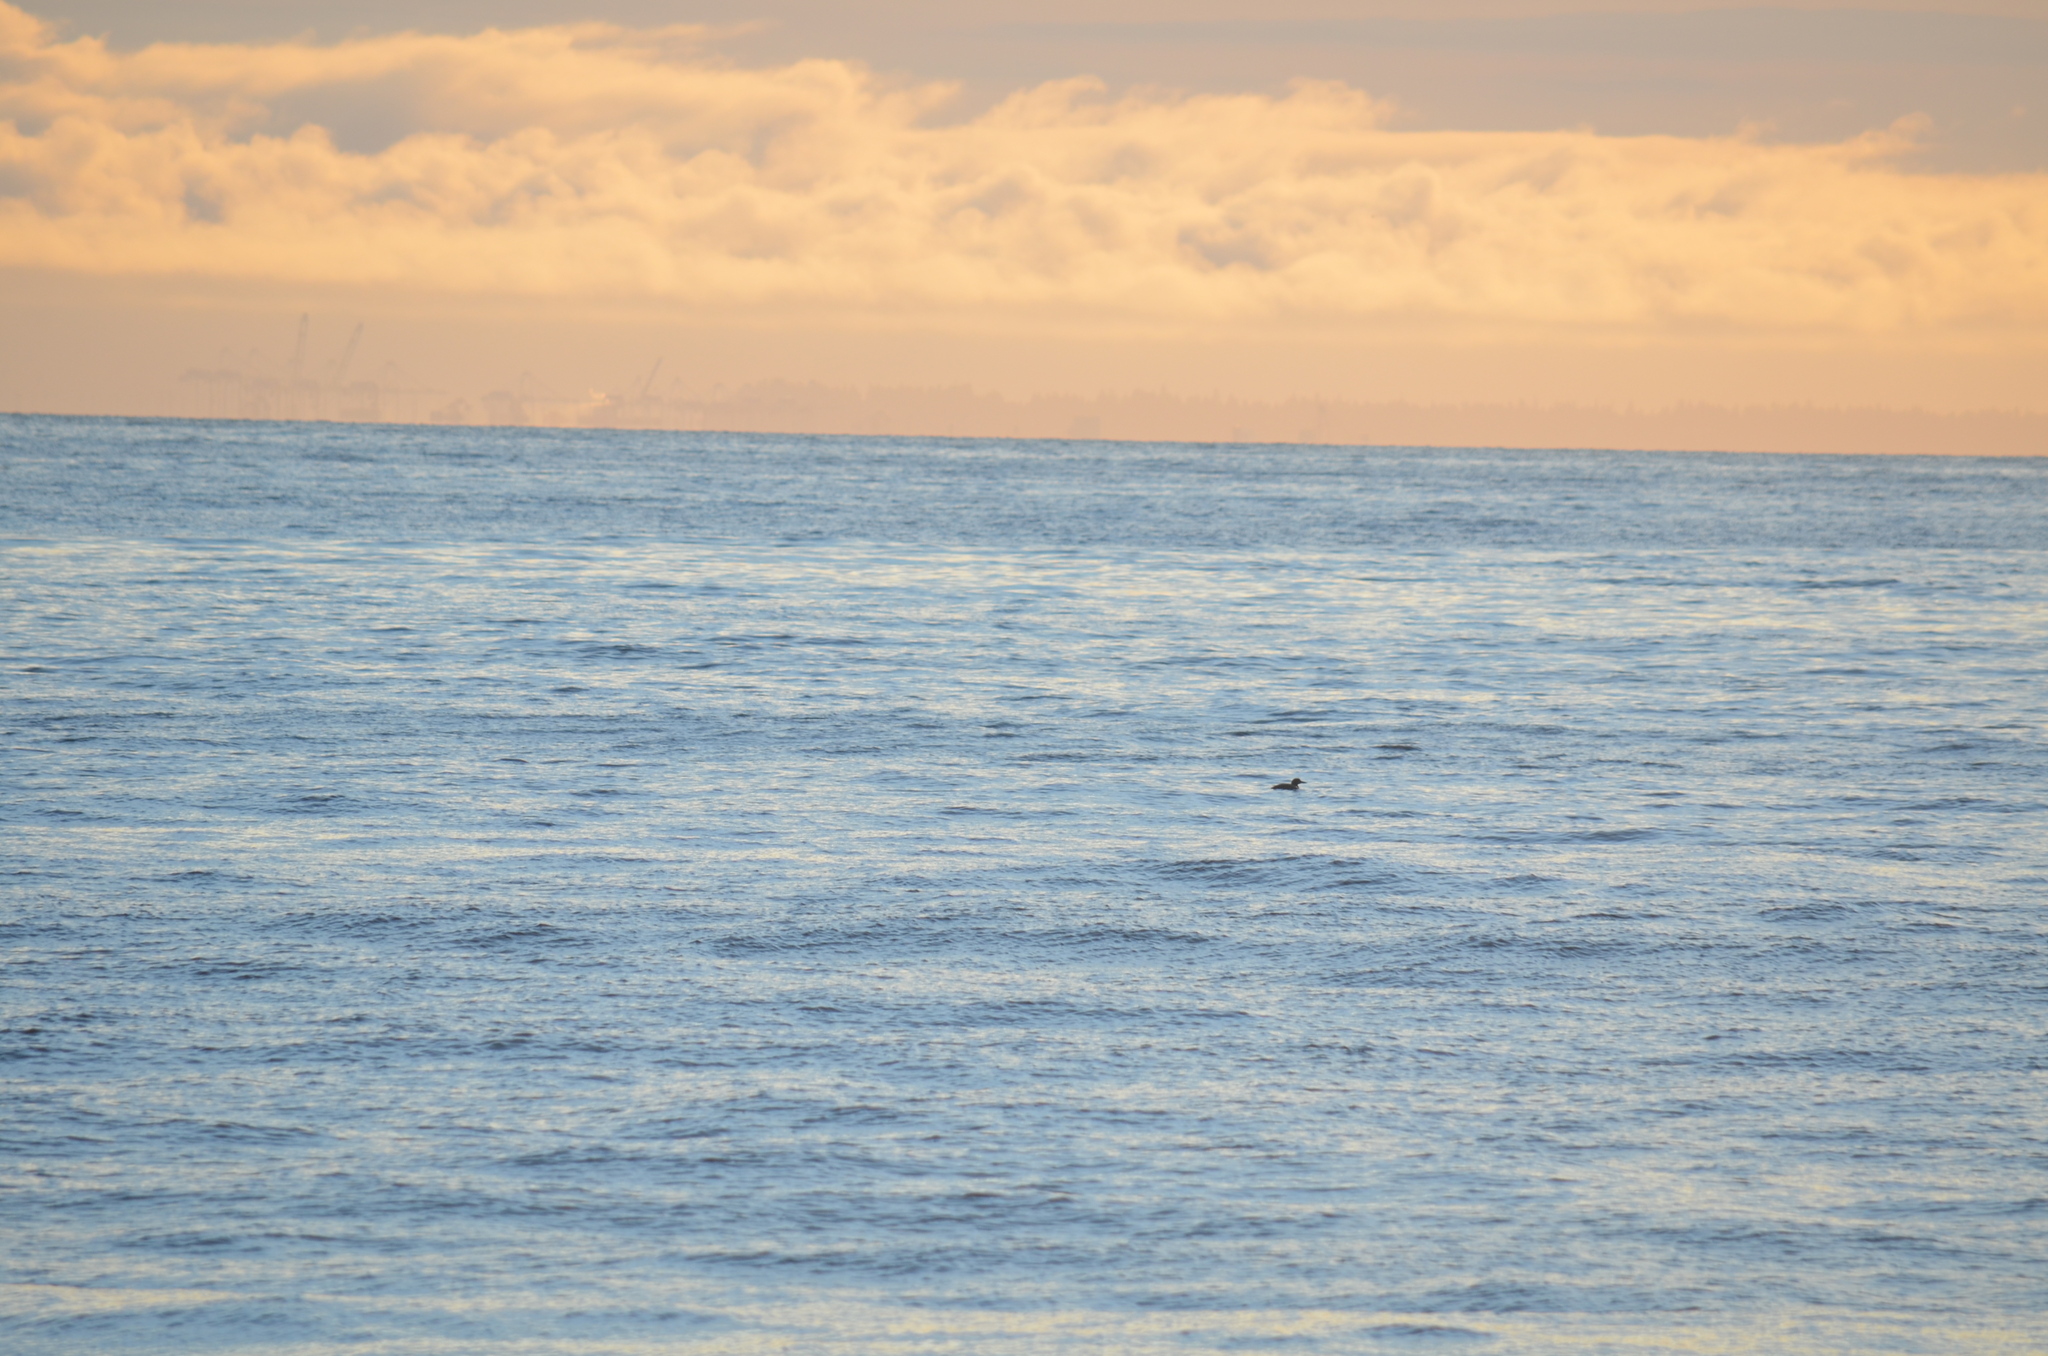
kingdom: Animalia
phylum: Chordata
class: Aves
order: Gaviiformes
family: Gaviidae
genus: Gavia
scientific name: Gavia immer
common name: Common loon
